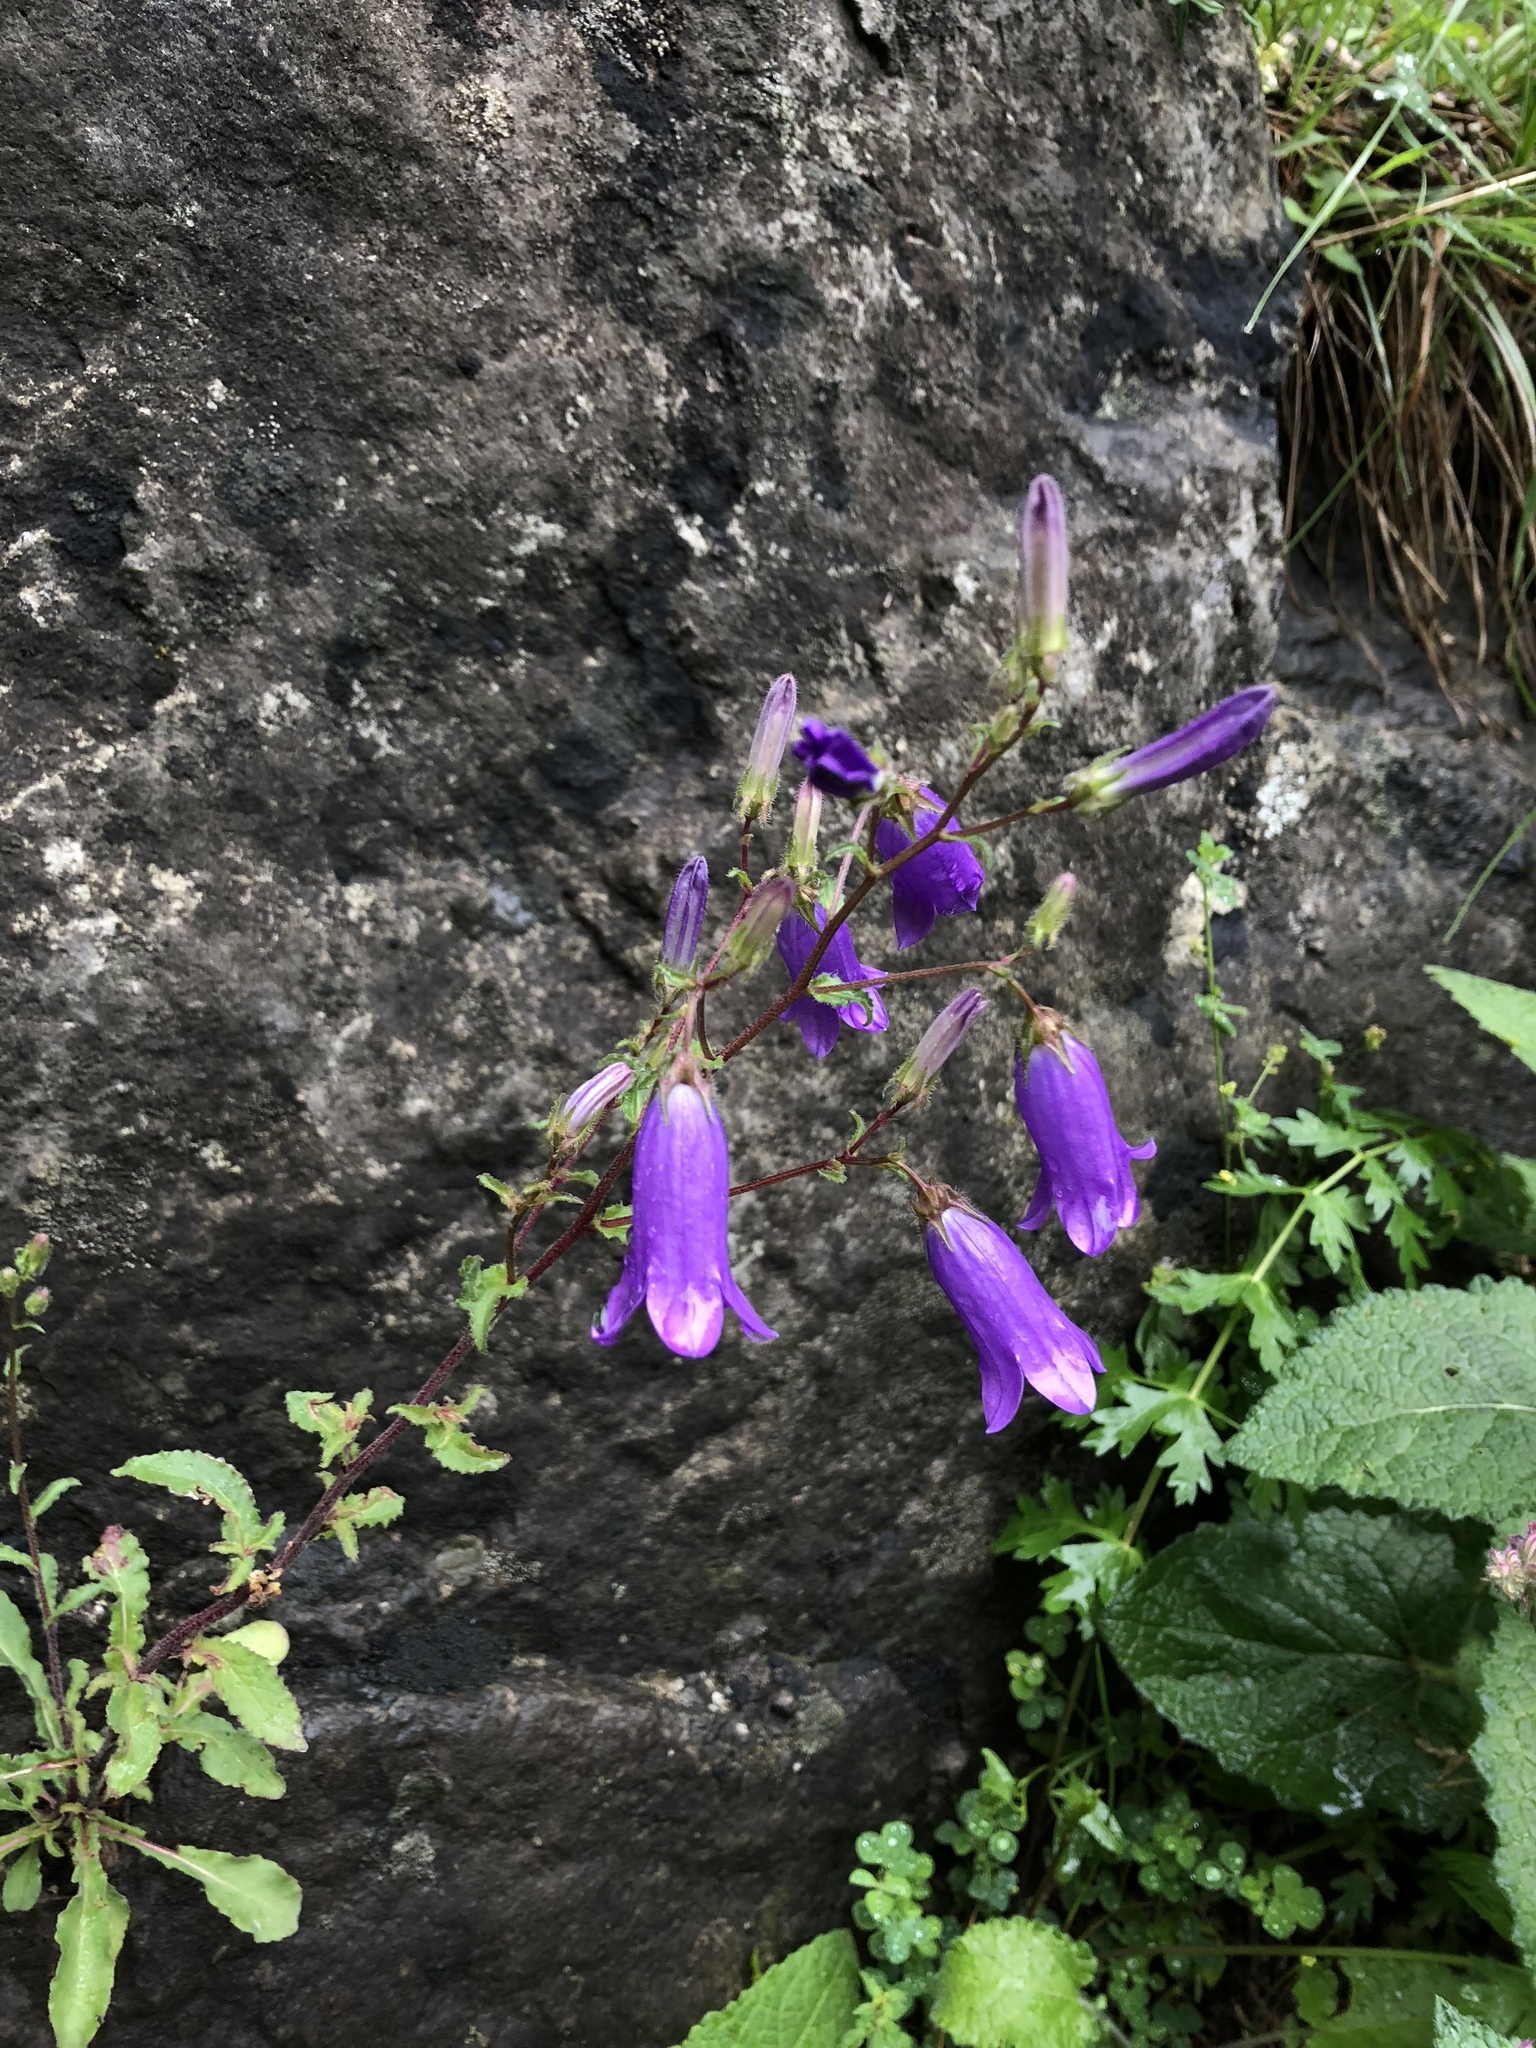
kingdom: Plantae
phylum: Tracheophyta
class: Magnoliopsida
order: Asterales
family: Campanulaceae
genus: Campanula
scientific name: Campanula sibirica
